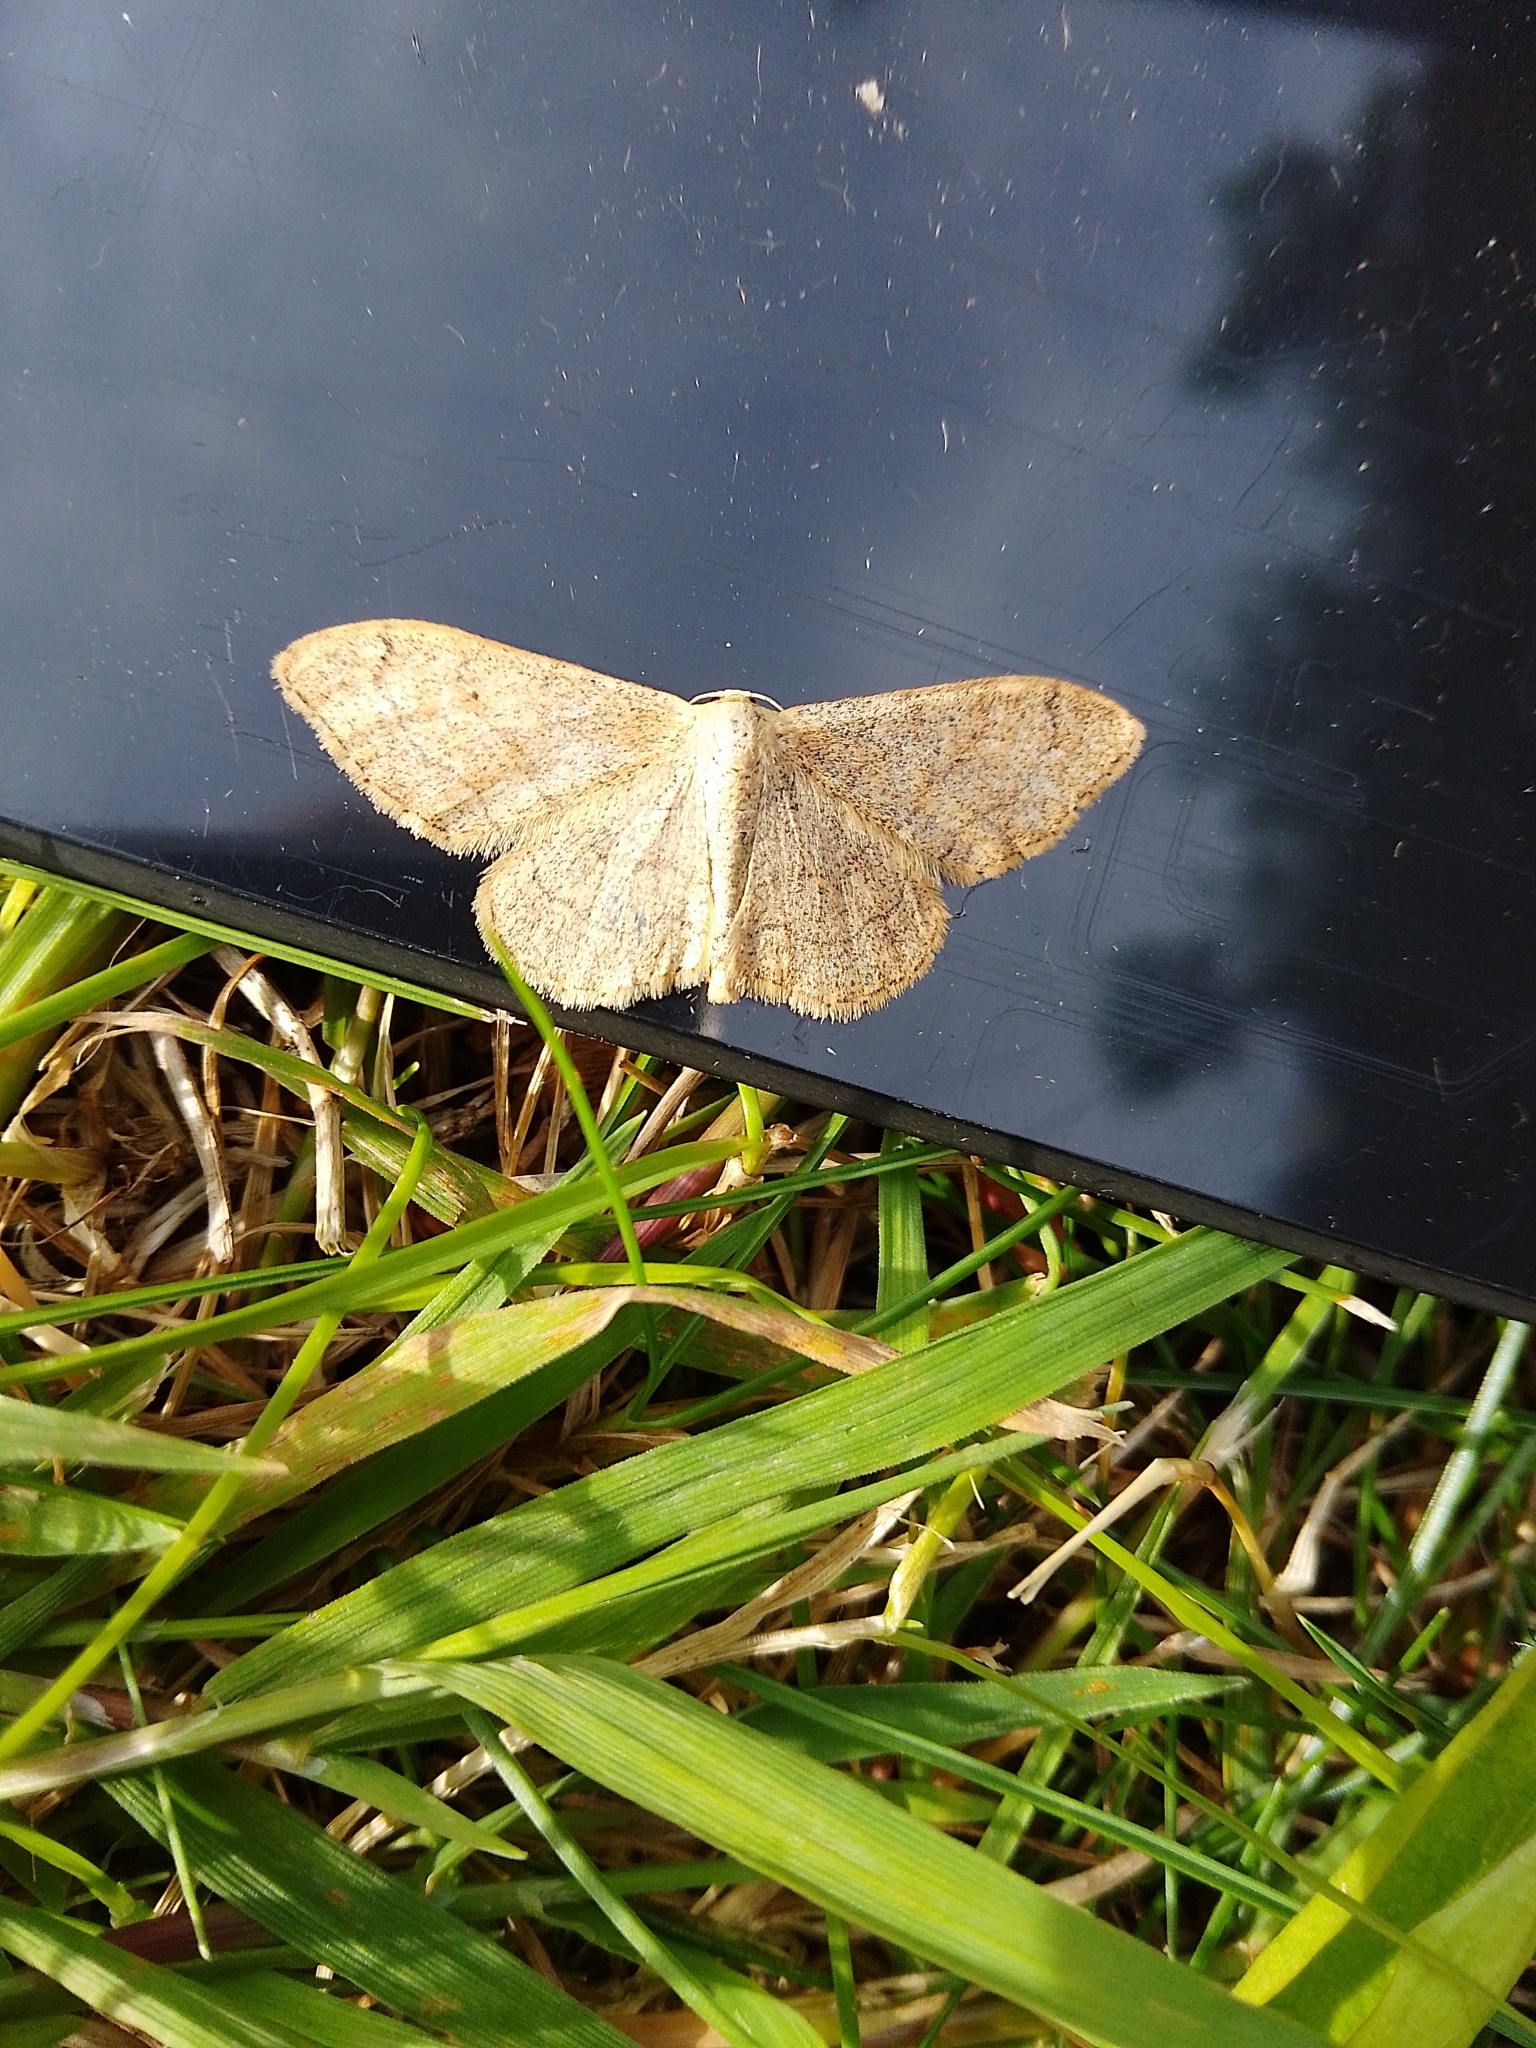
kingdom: Animalia
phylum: Arthropoda
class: Insecta
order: Lepidoptera
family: Geometridae
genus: Idaea
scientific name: Idaea aversata
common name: Riband wave
